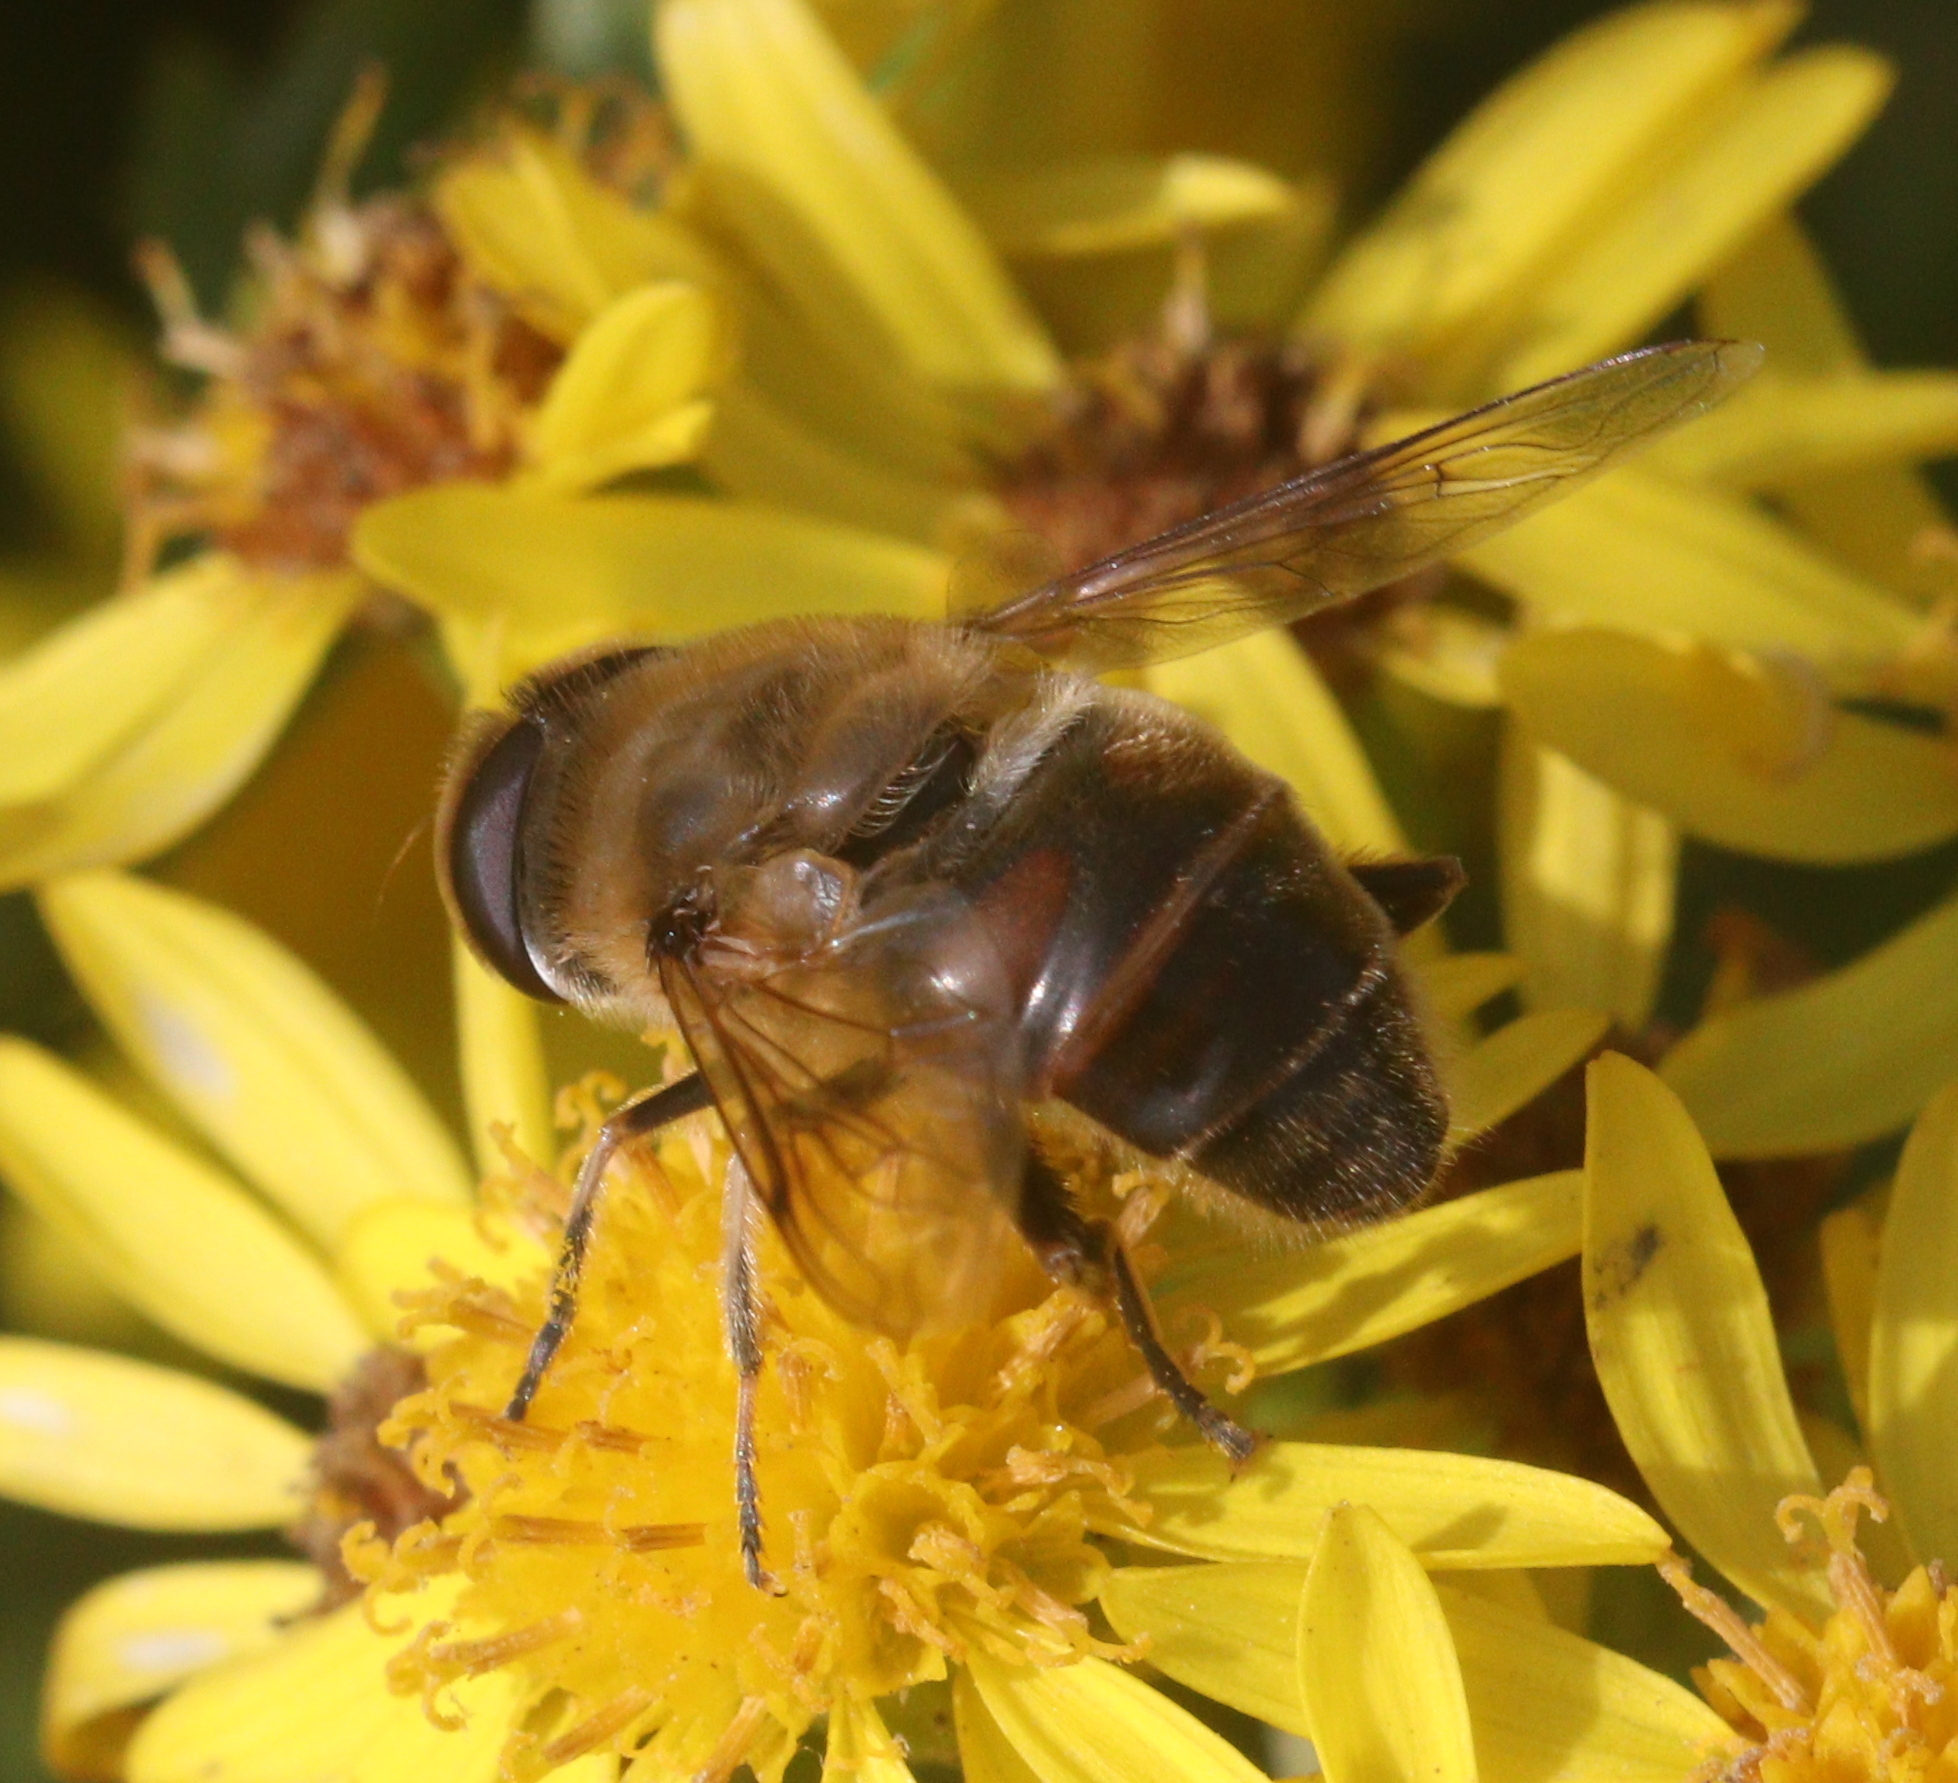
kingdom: Animalia
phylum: Arthropoda
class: Insecta
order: Diptera
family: Syrphidae
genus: Eristalis
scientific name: Eristalis tenax
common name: Drone fly
